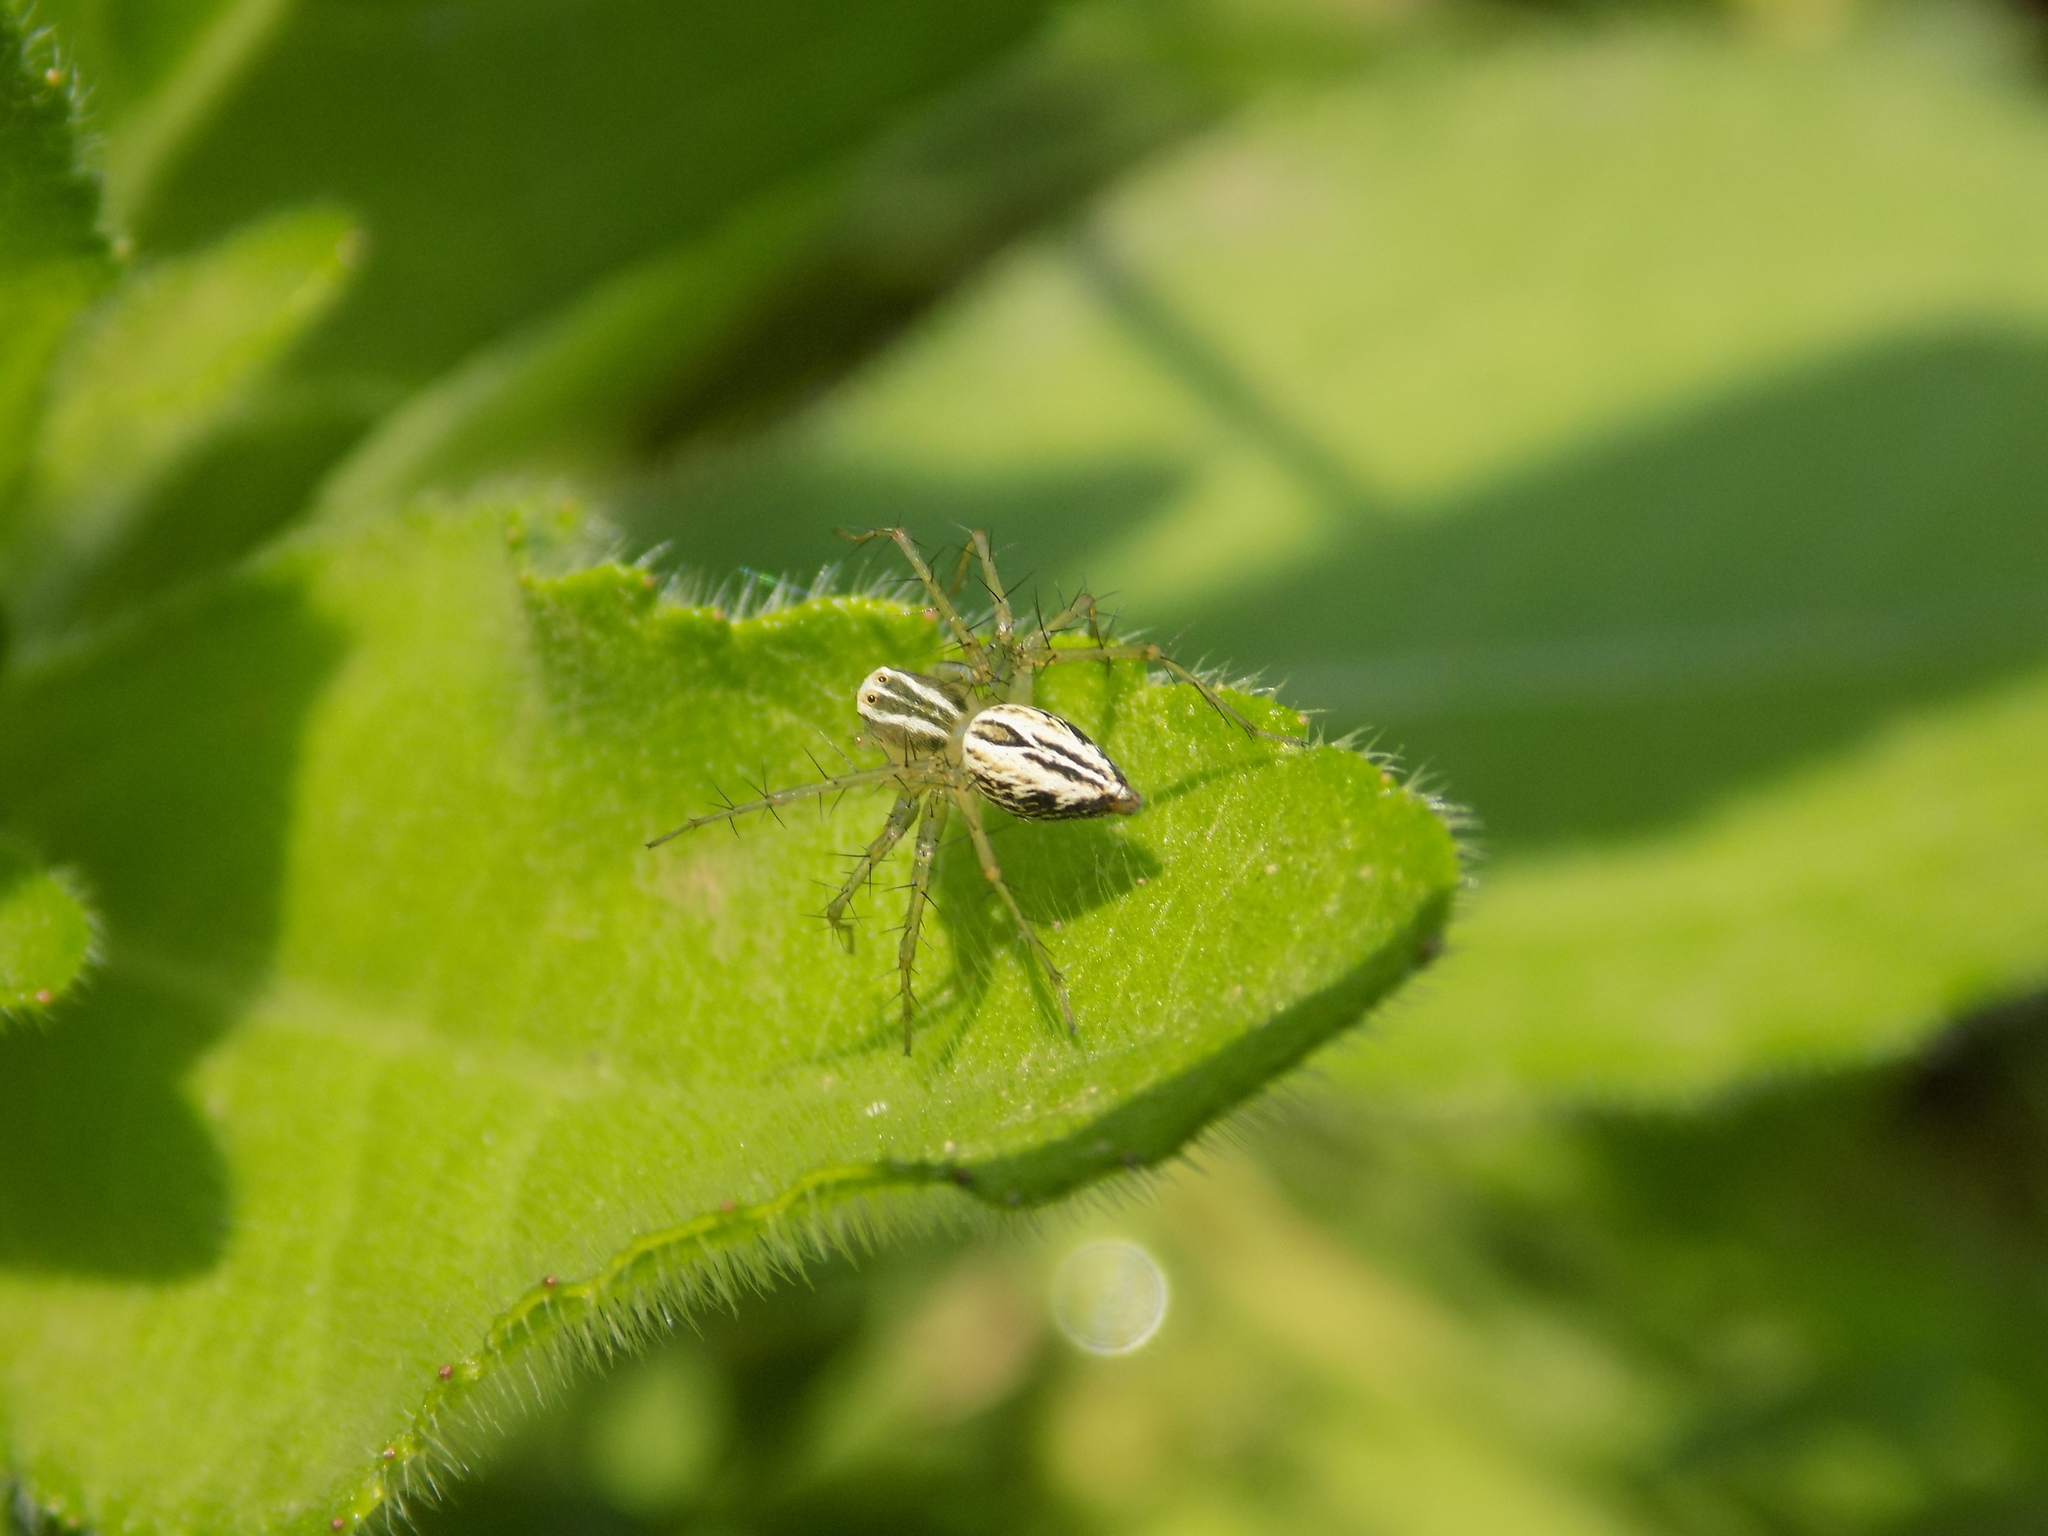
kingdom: Animalia
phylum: Arthropoda
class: Arachnida
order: Araneae
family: Oxyopidae
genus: Oxyopes
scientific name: Oxyopes salticus
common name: Lynx spiders
